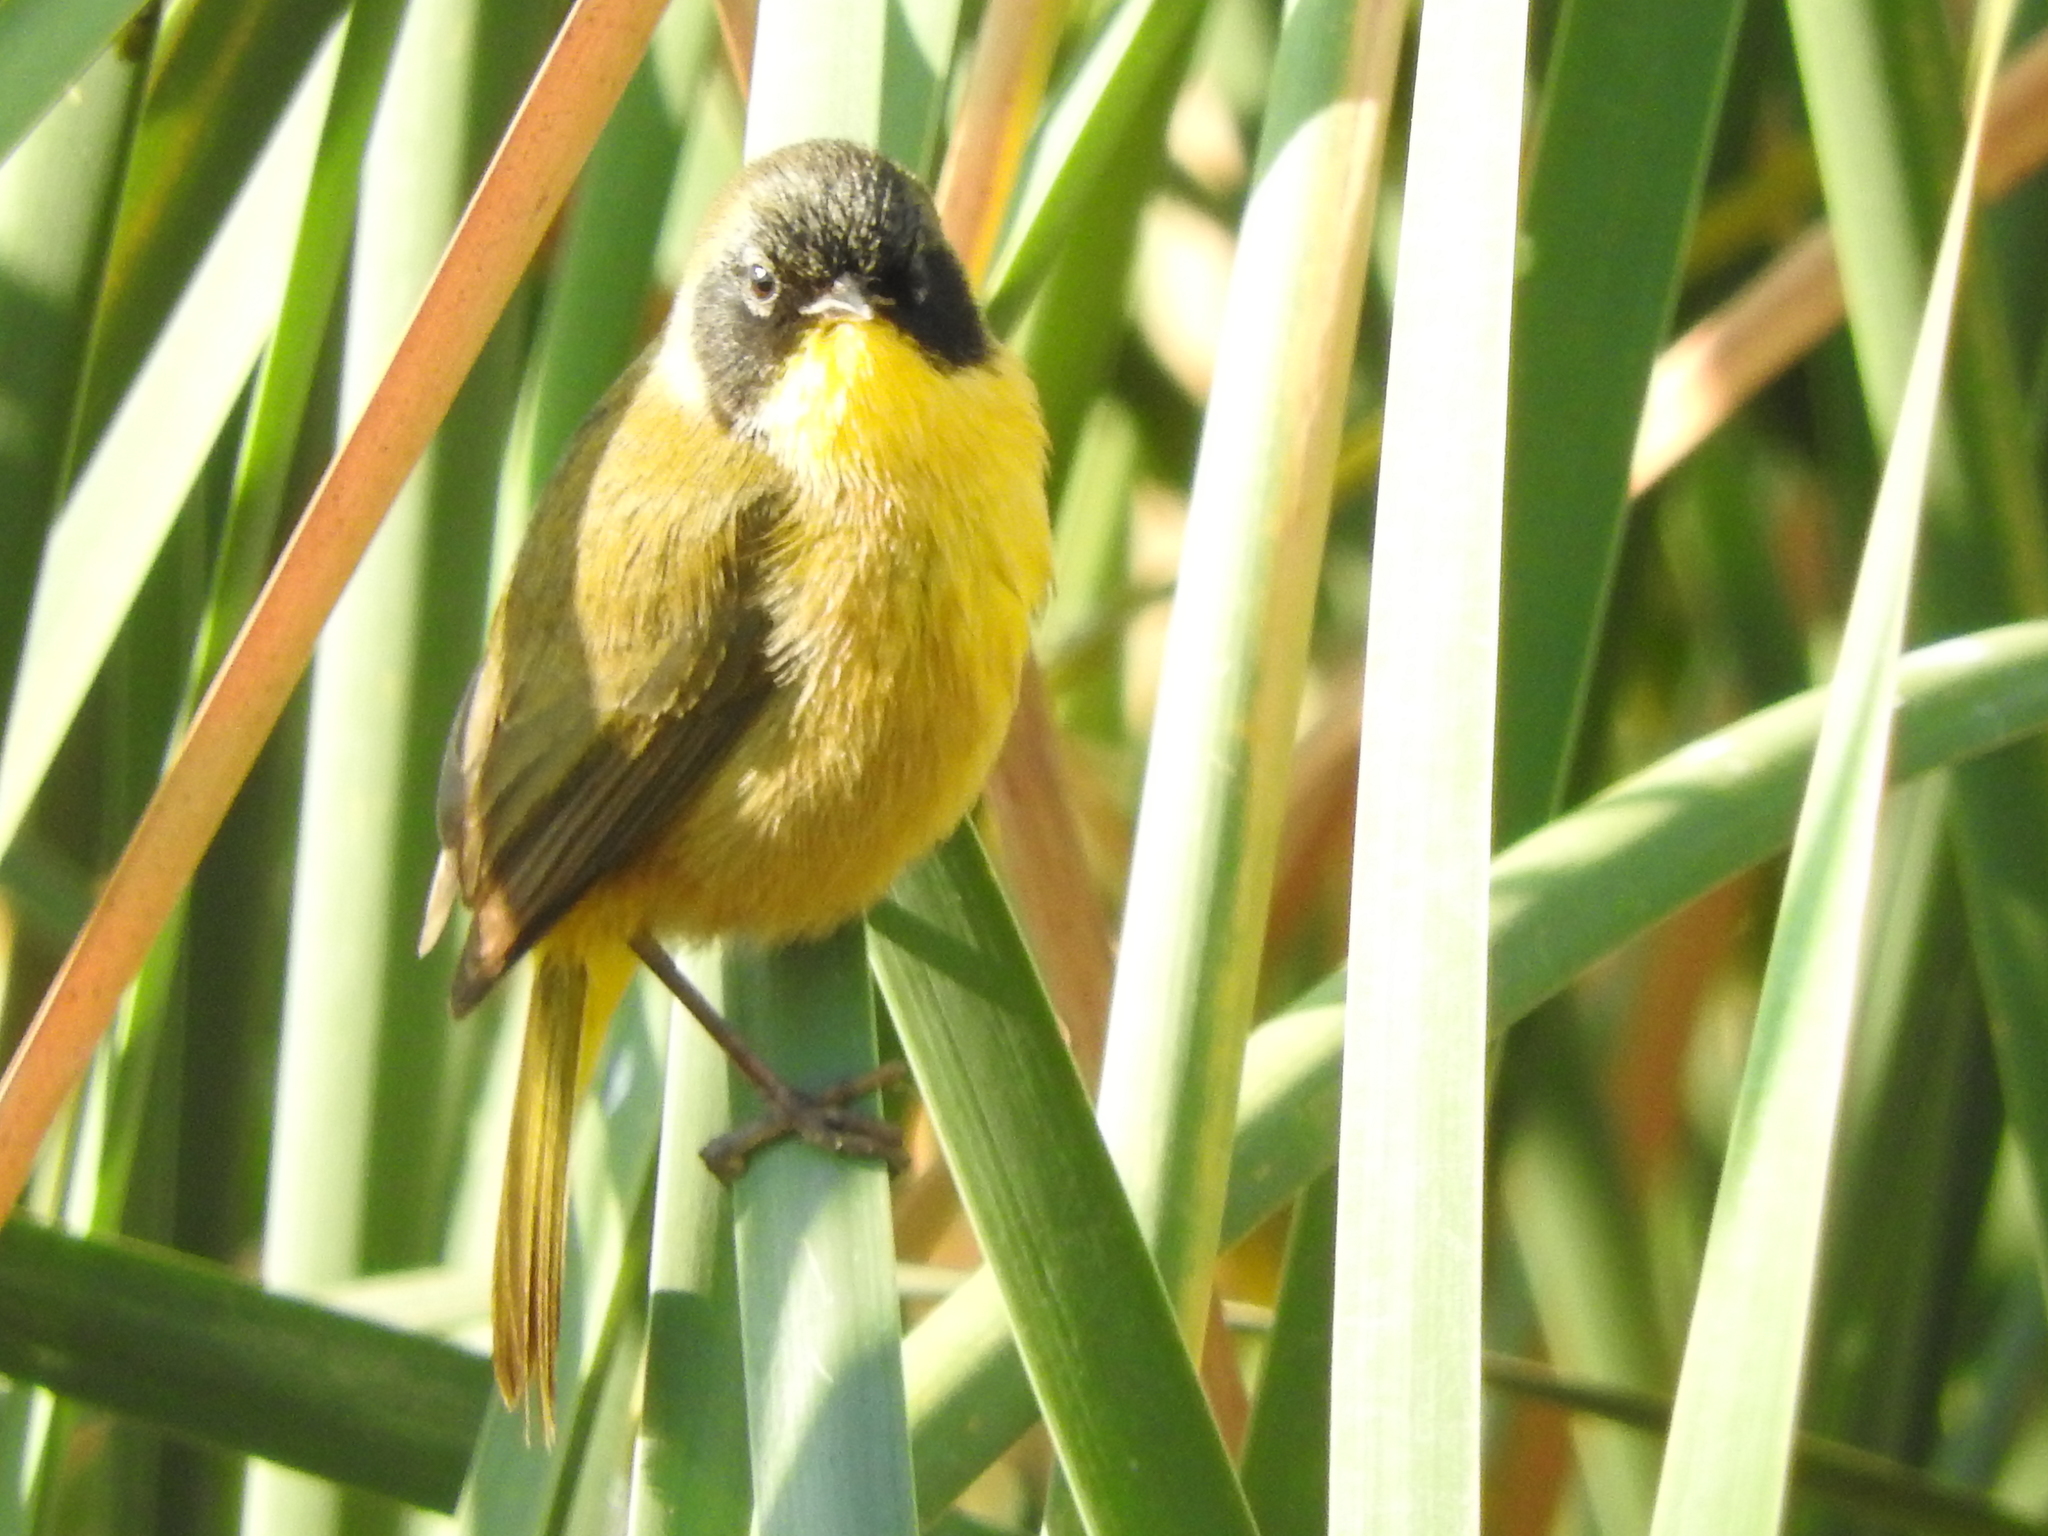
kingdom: Animalia
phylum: Chordata
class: Aves
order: Passeriformes
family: Parulidae
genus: Geothlypis
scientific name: Geothlypis speciosa
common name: Black-polled yellowthroat
